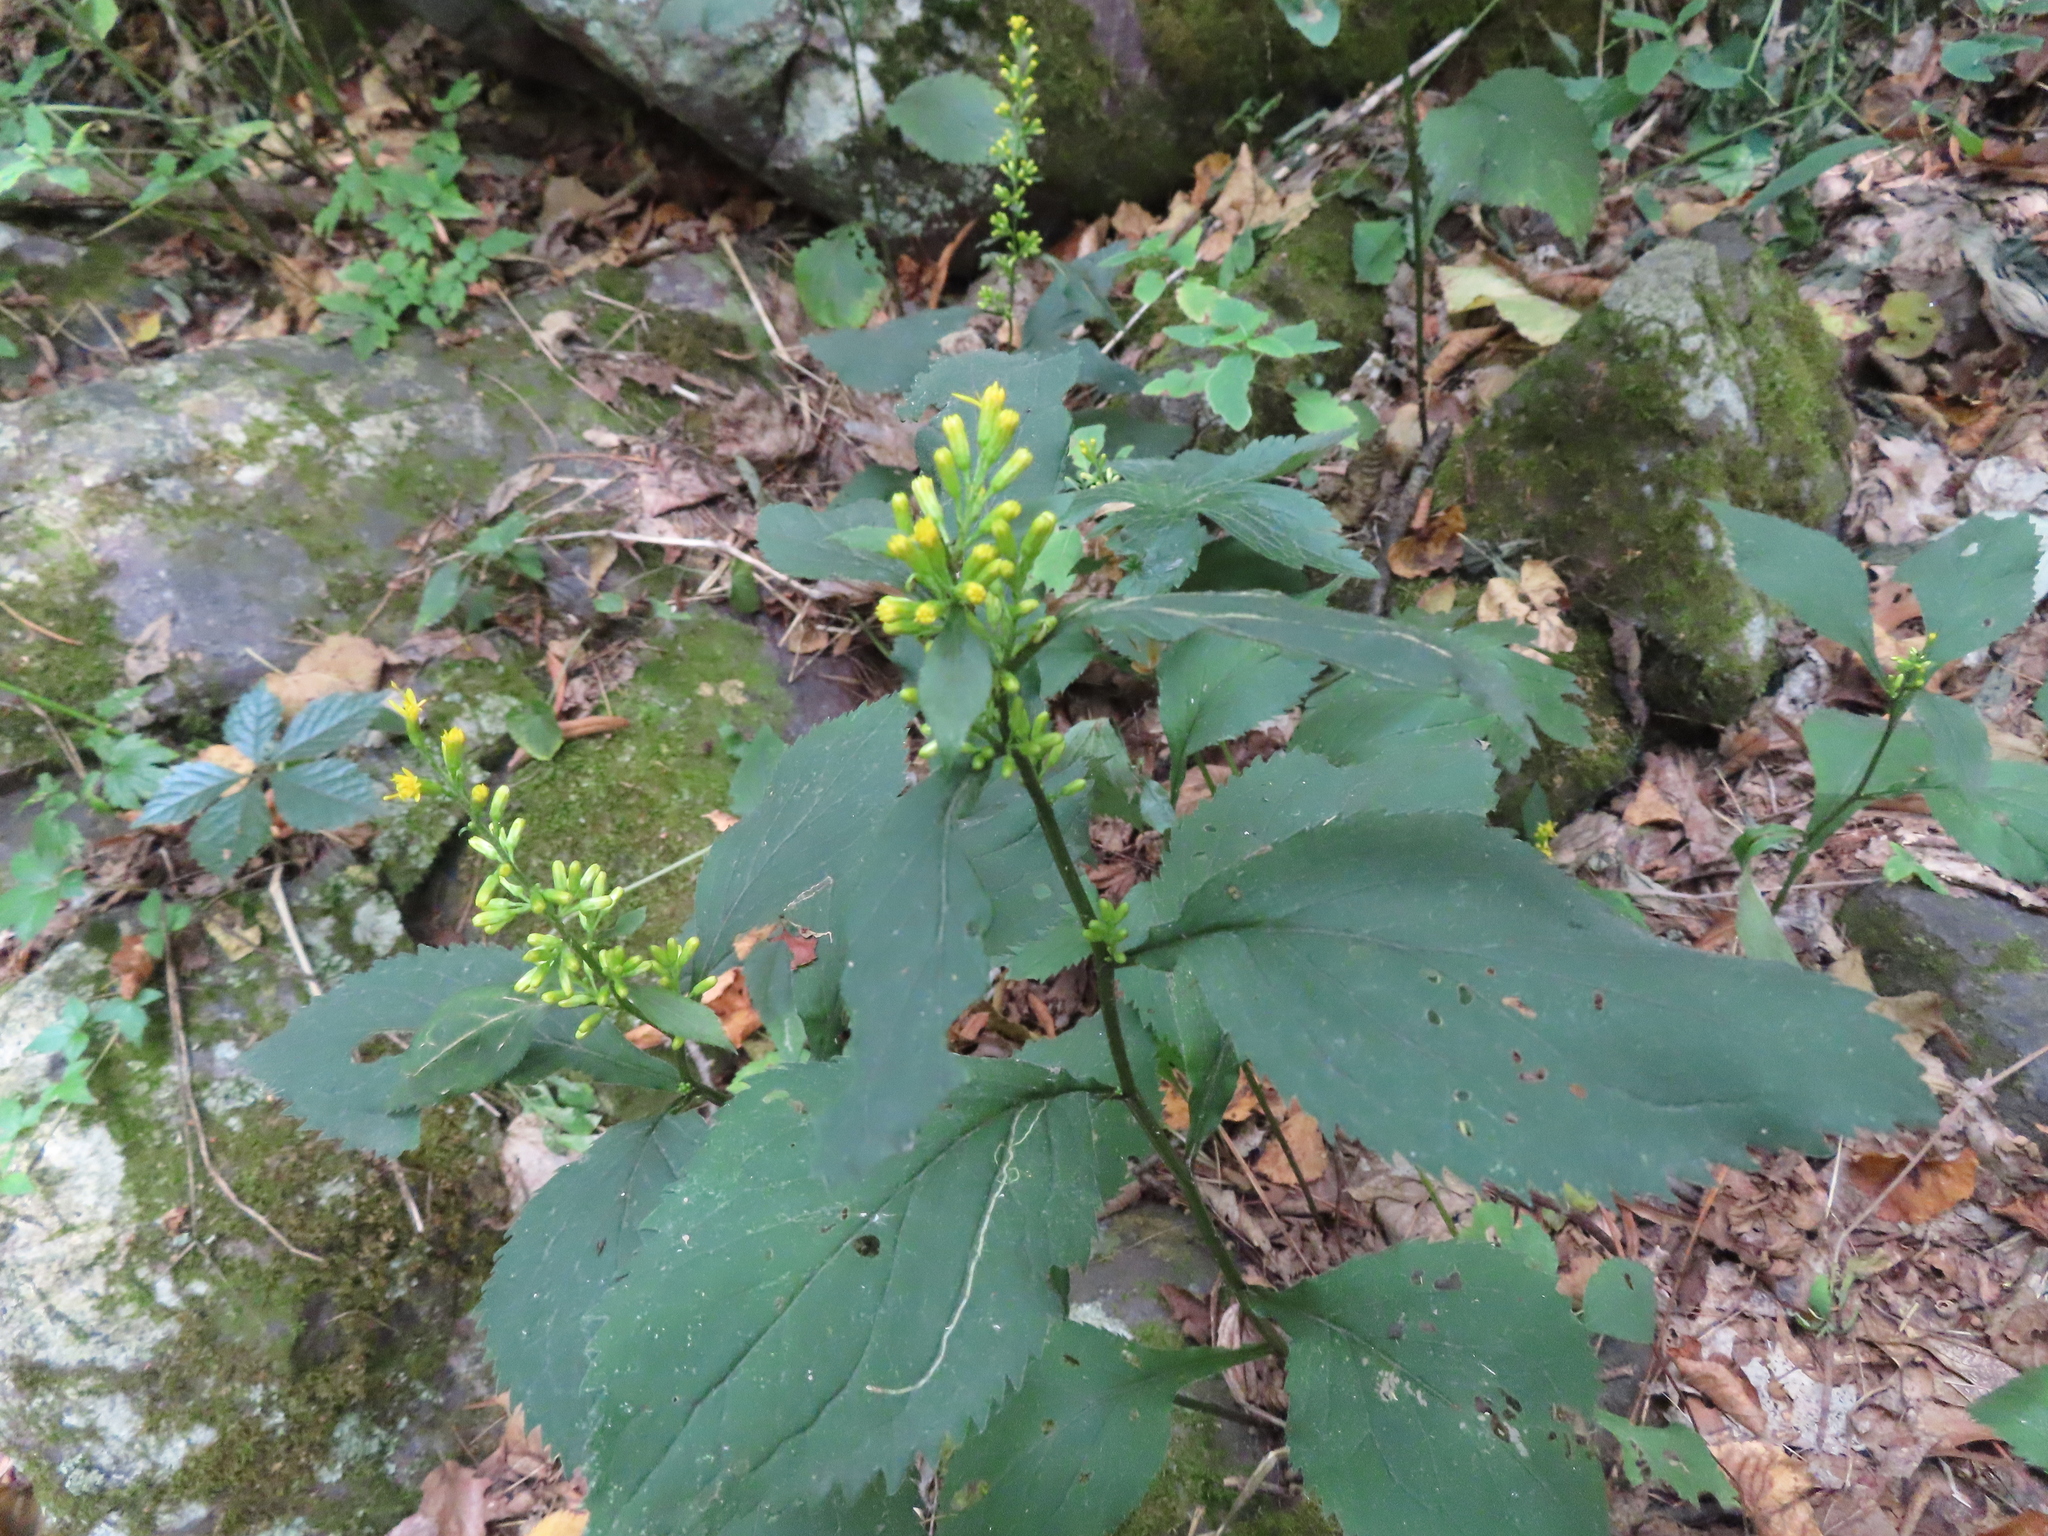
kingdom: Plantae
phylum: Tracheophyta
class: Magnoliopsida
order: Asterales
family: Asteraceae
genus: Solidago
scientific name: Solidago flexicaulis
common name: Zig-zag goldenrod
